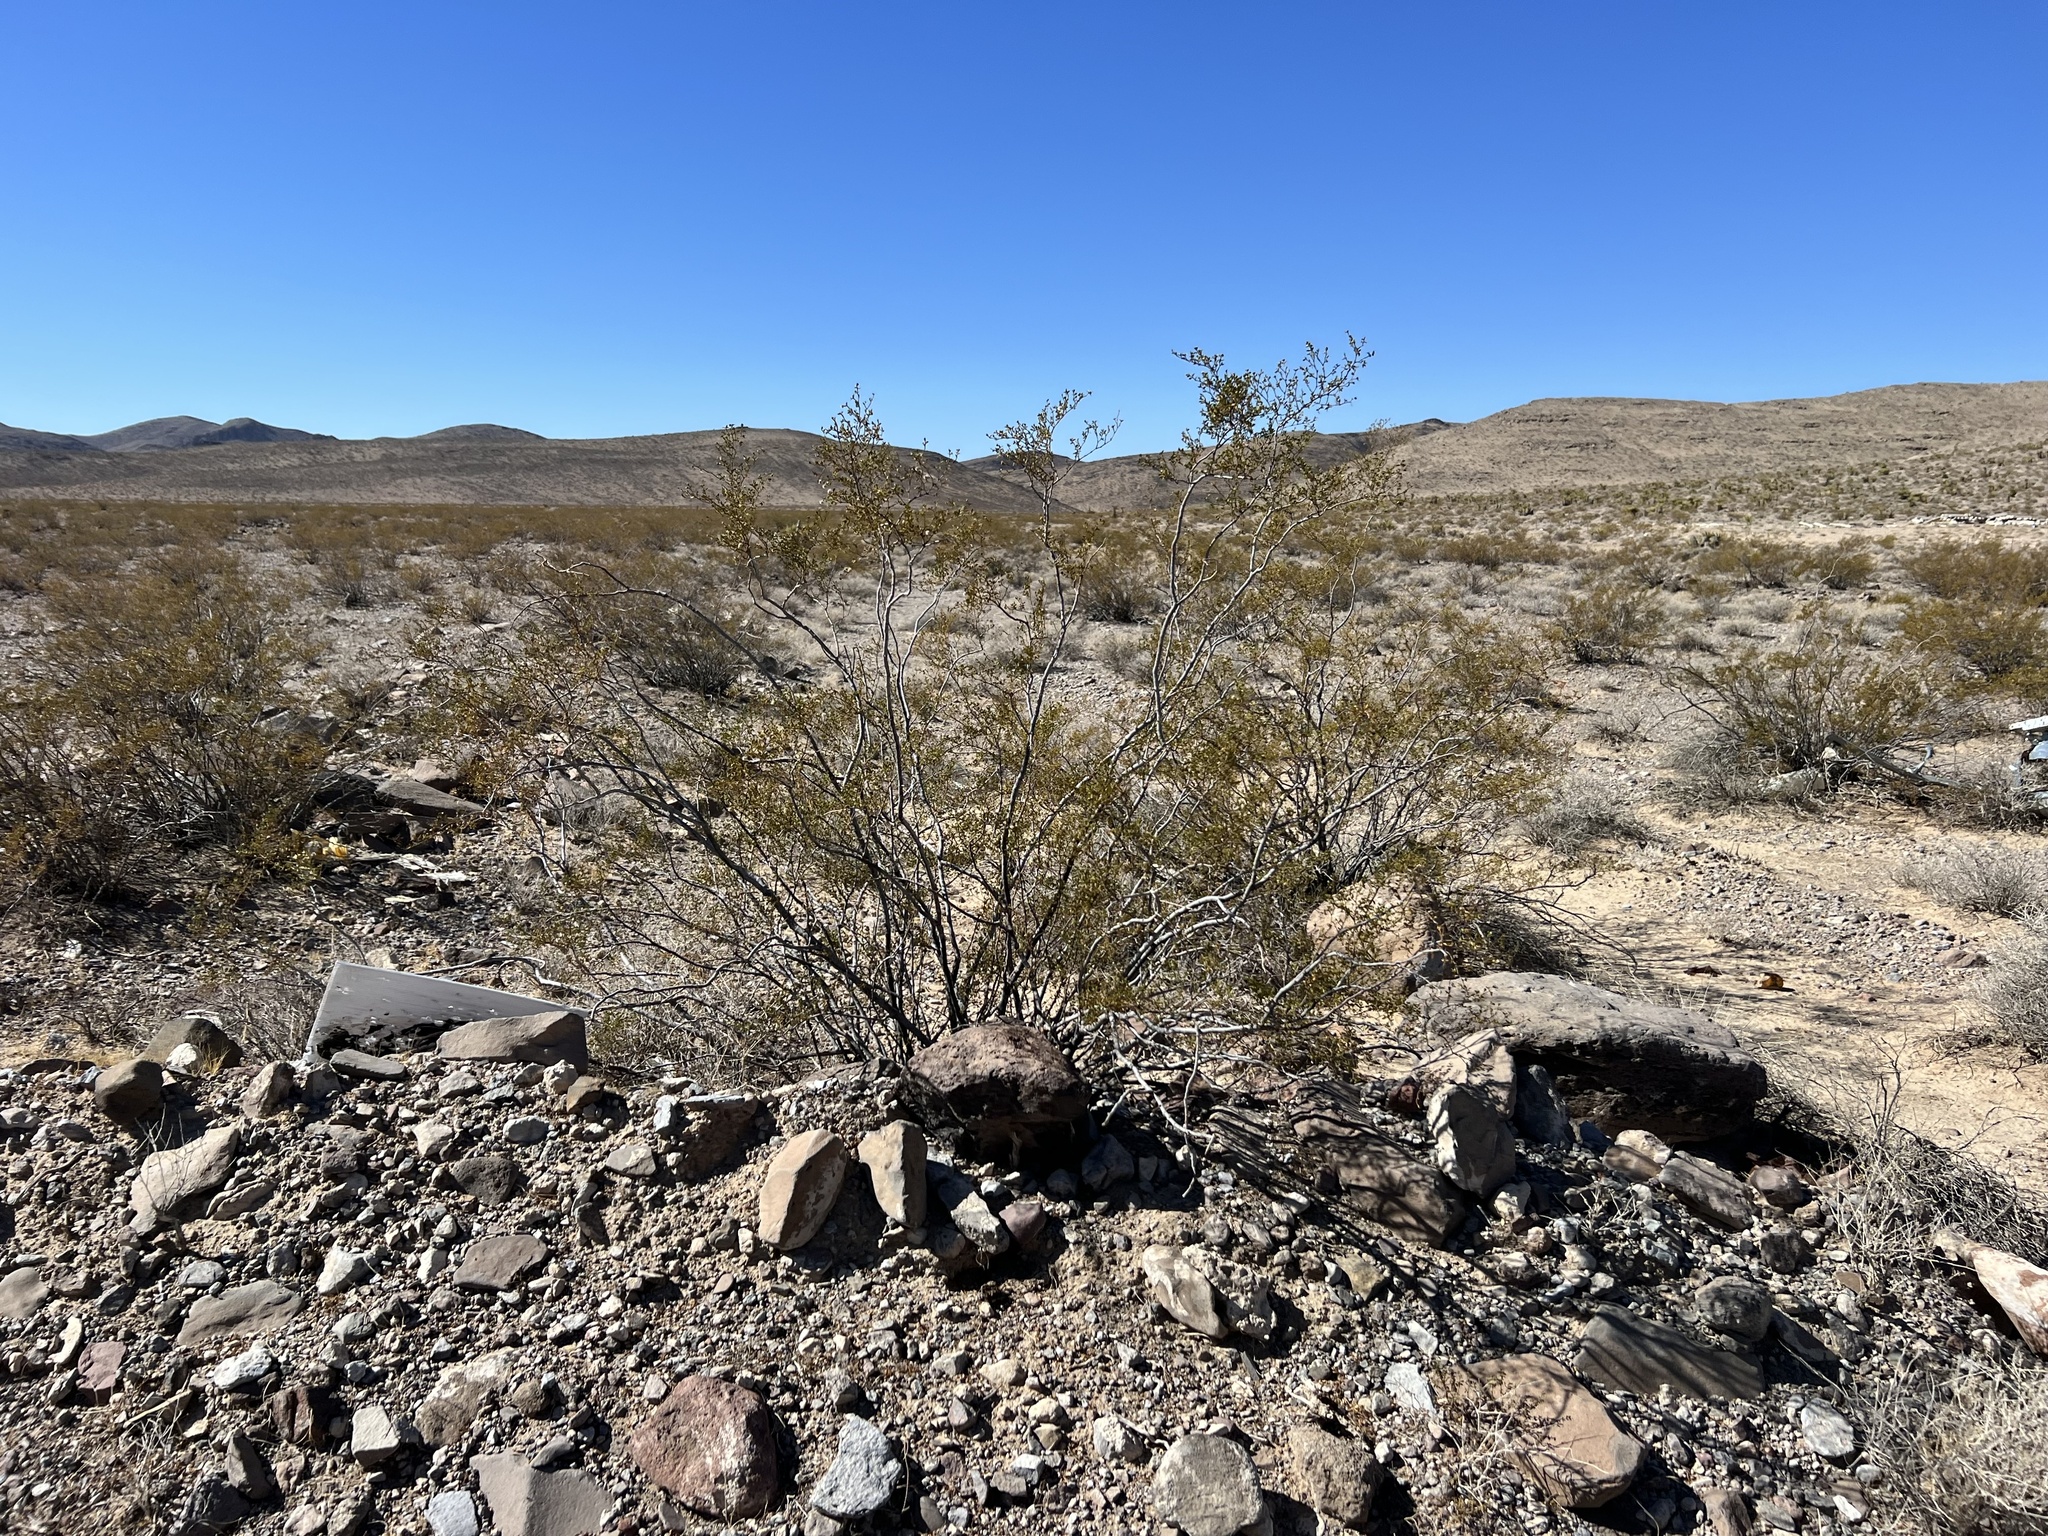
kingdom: Plantae
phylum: Tracheophyta
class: Magnoliopsida
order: Zygophyllales
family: Zygophyllaceae
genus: Larrea
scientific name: Larrea tridentata
